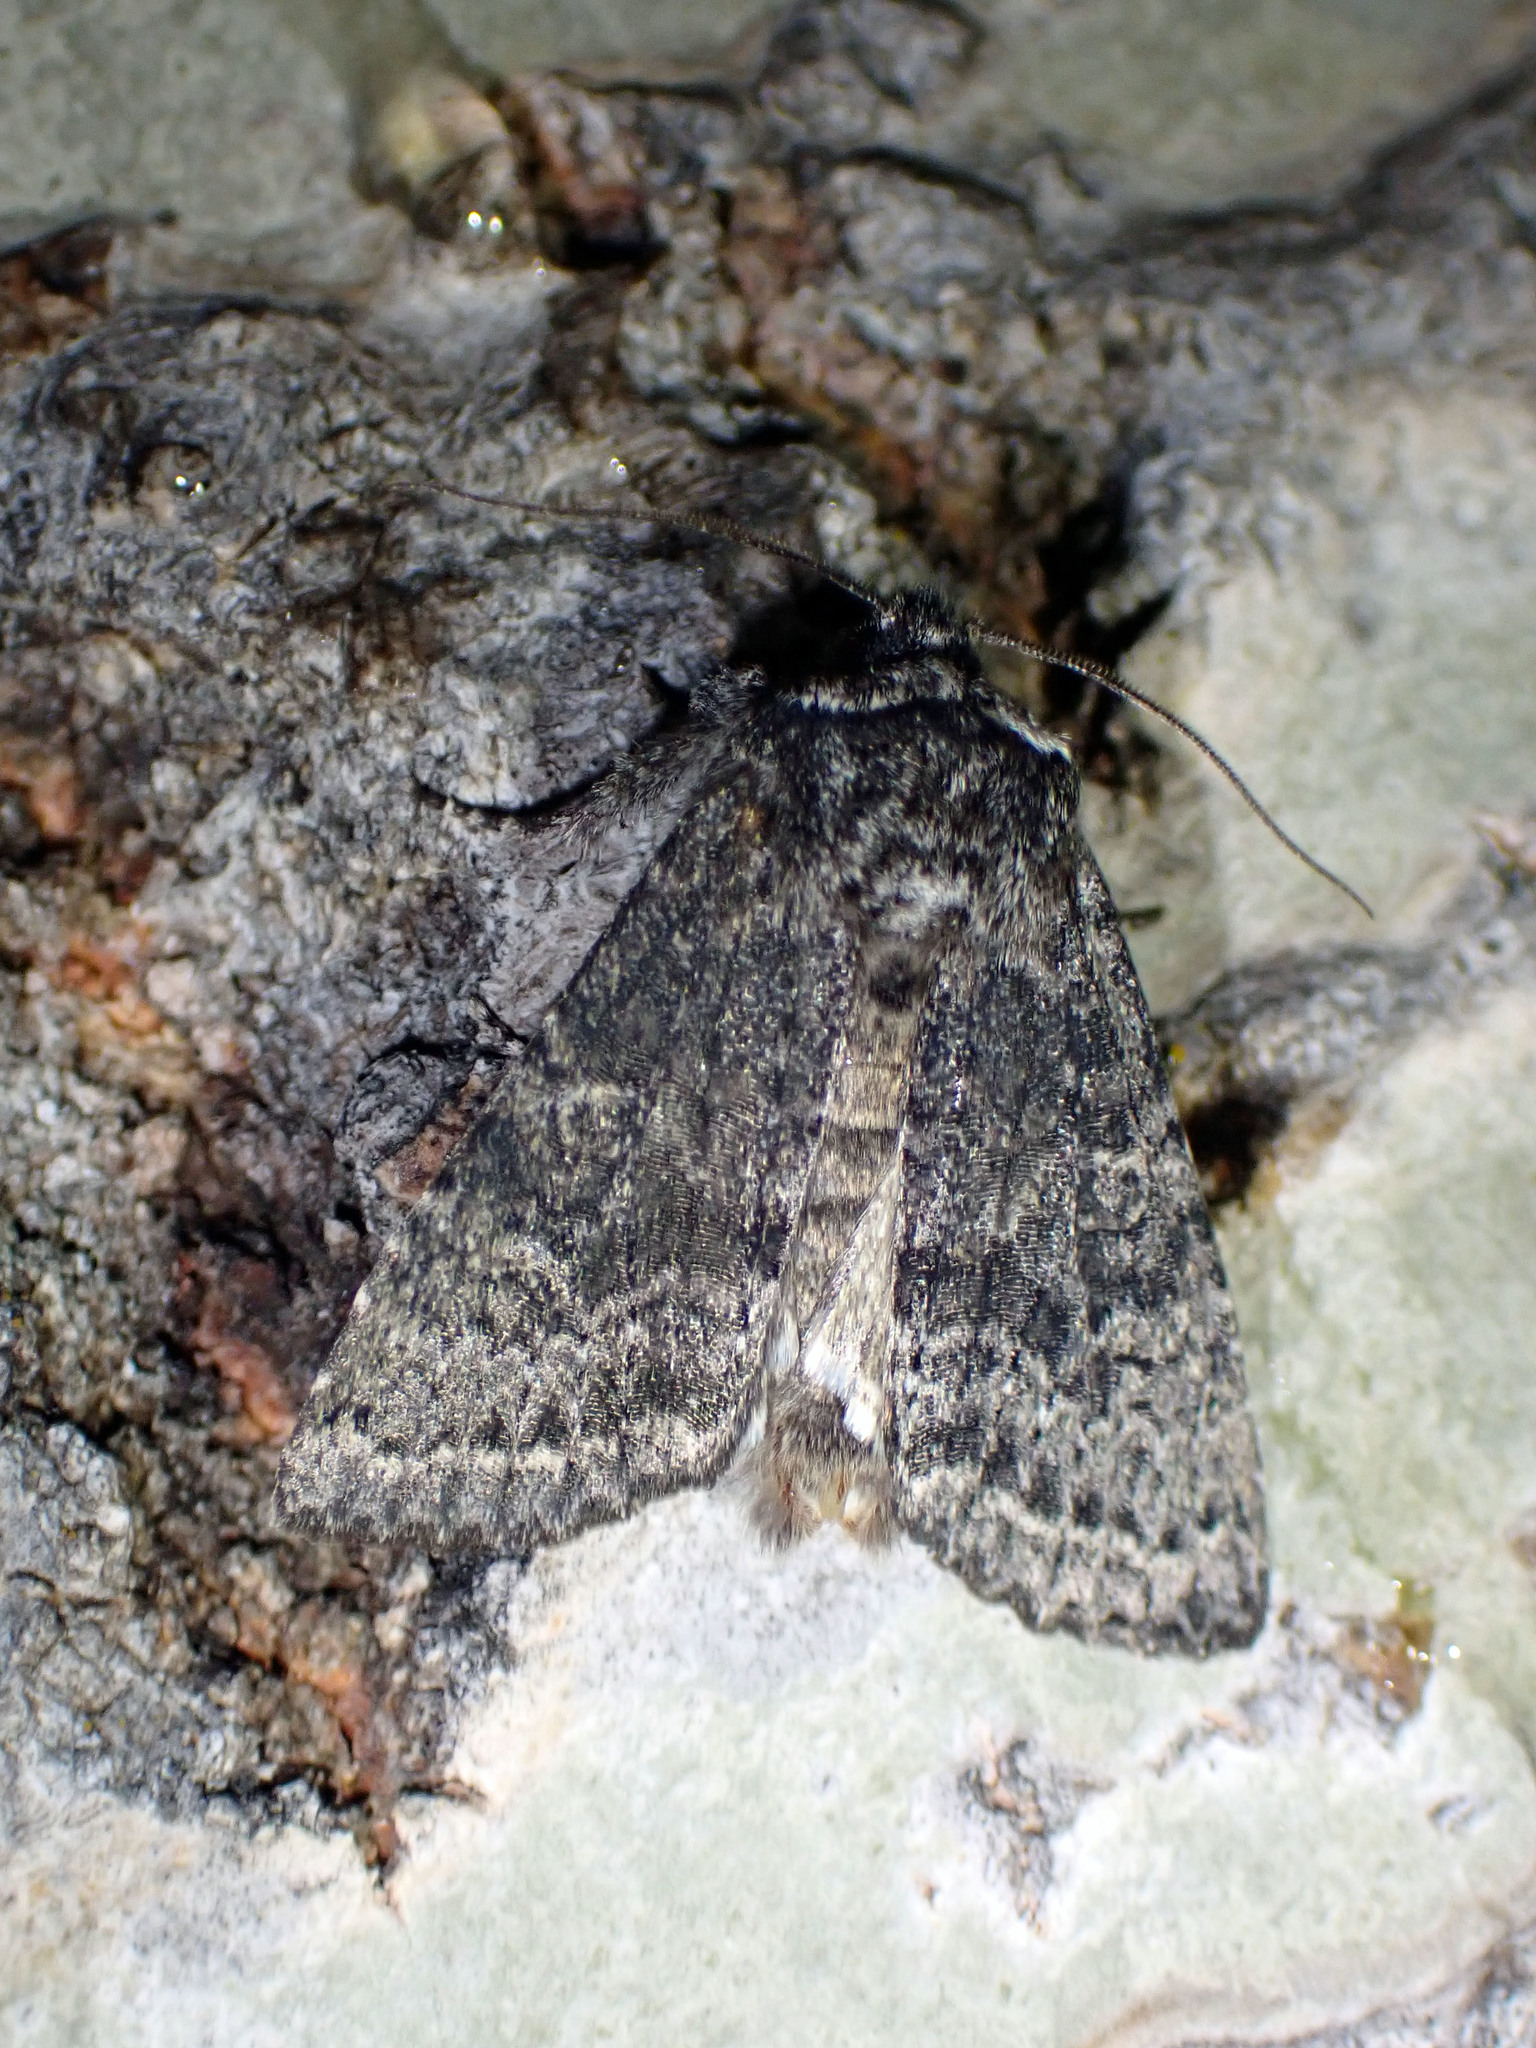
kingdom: Animalia
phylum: Arthropoda
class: Insecta
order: Lepidoptera
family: Noctuidae
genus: Egira
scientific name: Egira dolosa
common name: Lined black aspen cat.
